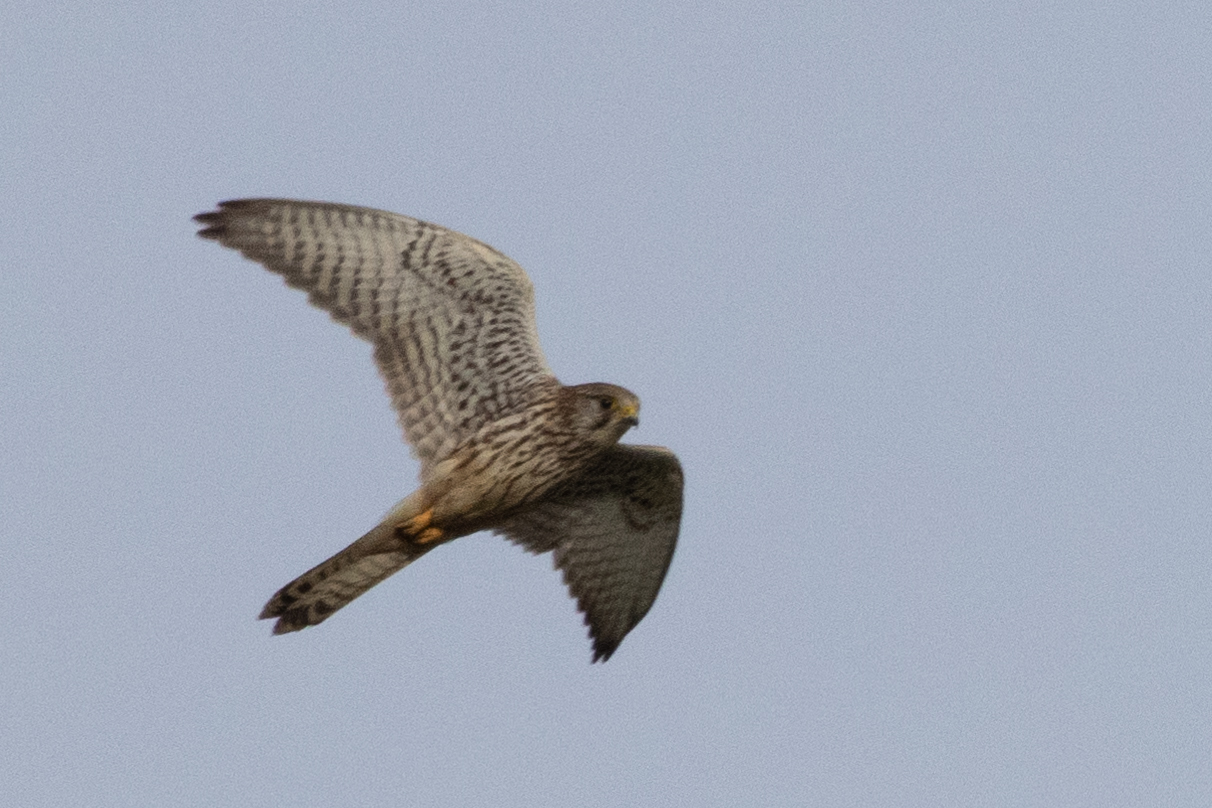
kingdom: Animalia
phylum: Chordata
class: Aves
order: Falconiformes
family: Falconidae
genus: Falco
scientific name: Falco tinnunculus
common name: Common kestrel
